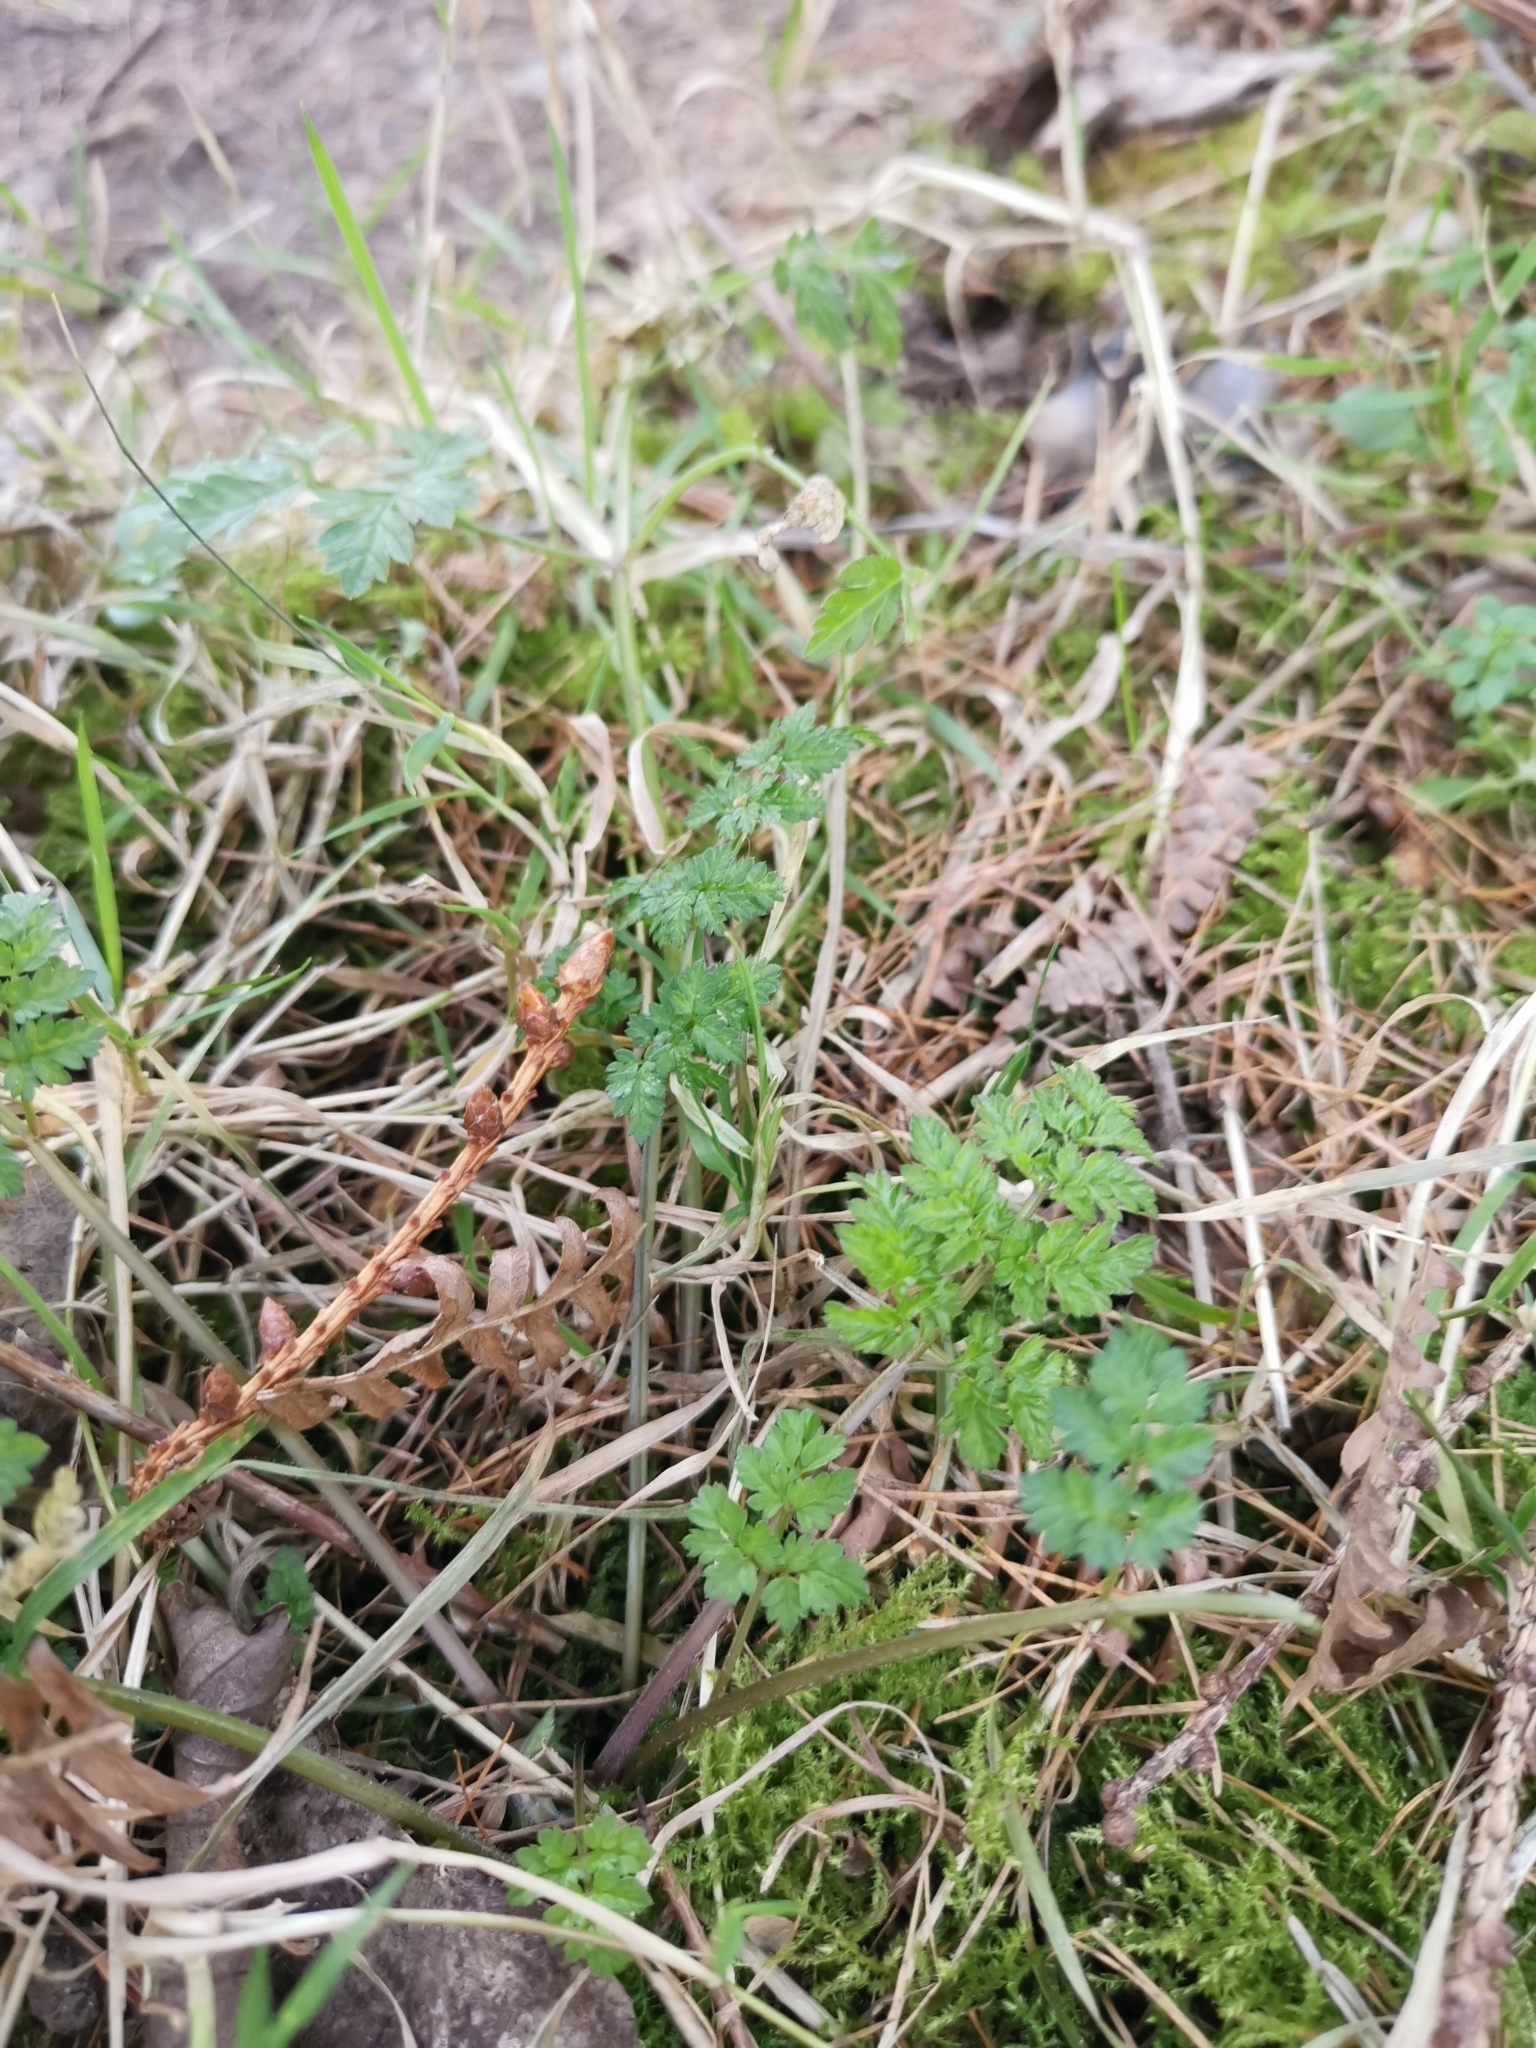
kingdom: Plantae
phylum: Tracheophyta
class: Magnoliopsida
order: Apiales
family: Apiaceae
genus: Anthriscus
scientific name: Anthriscus sylvestris
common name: Cow parsley
